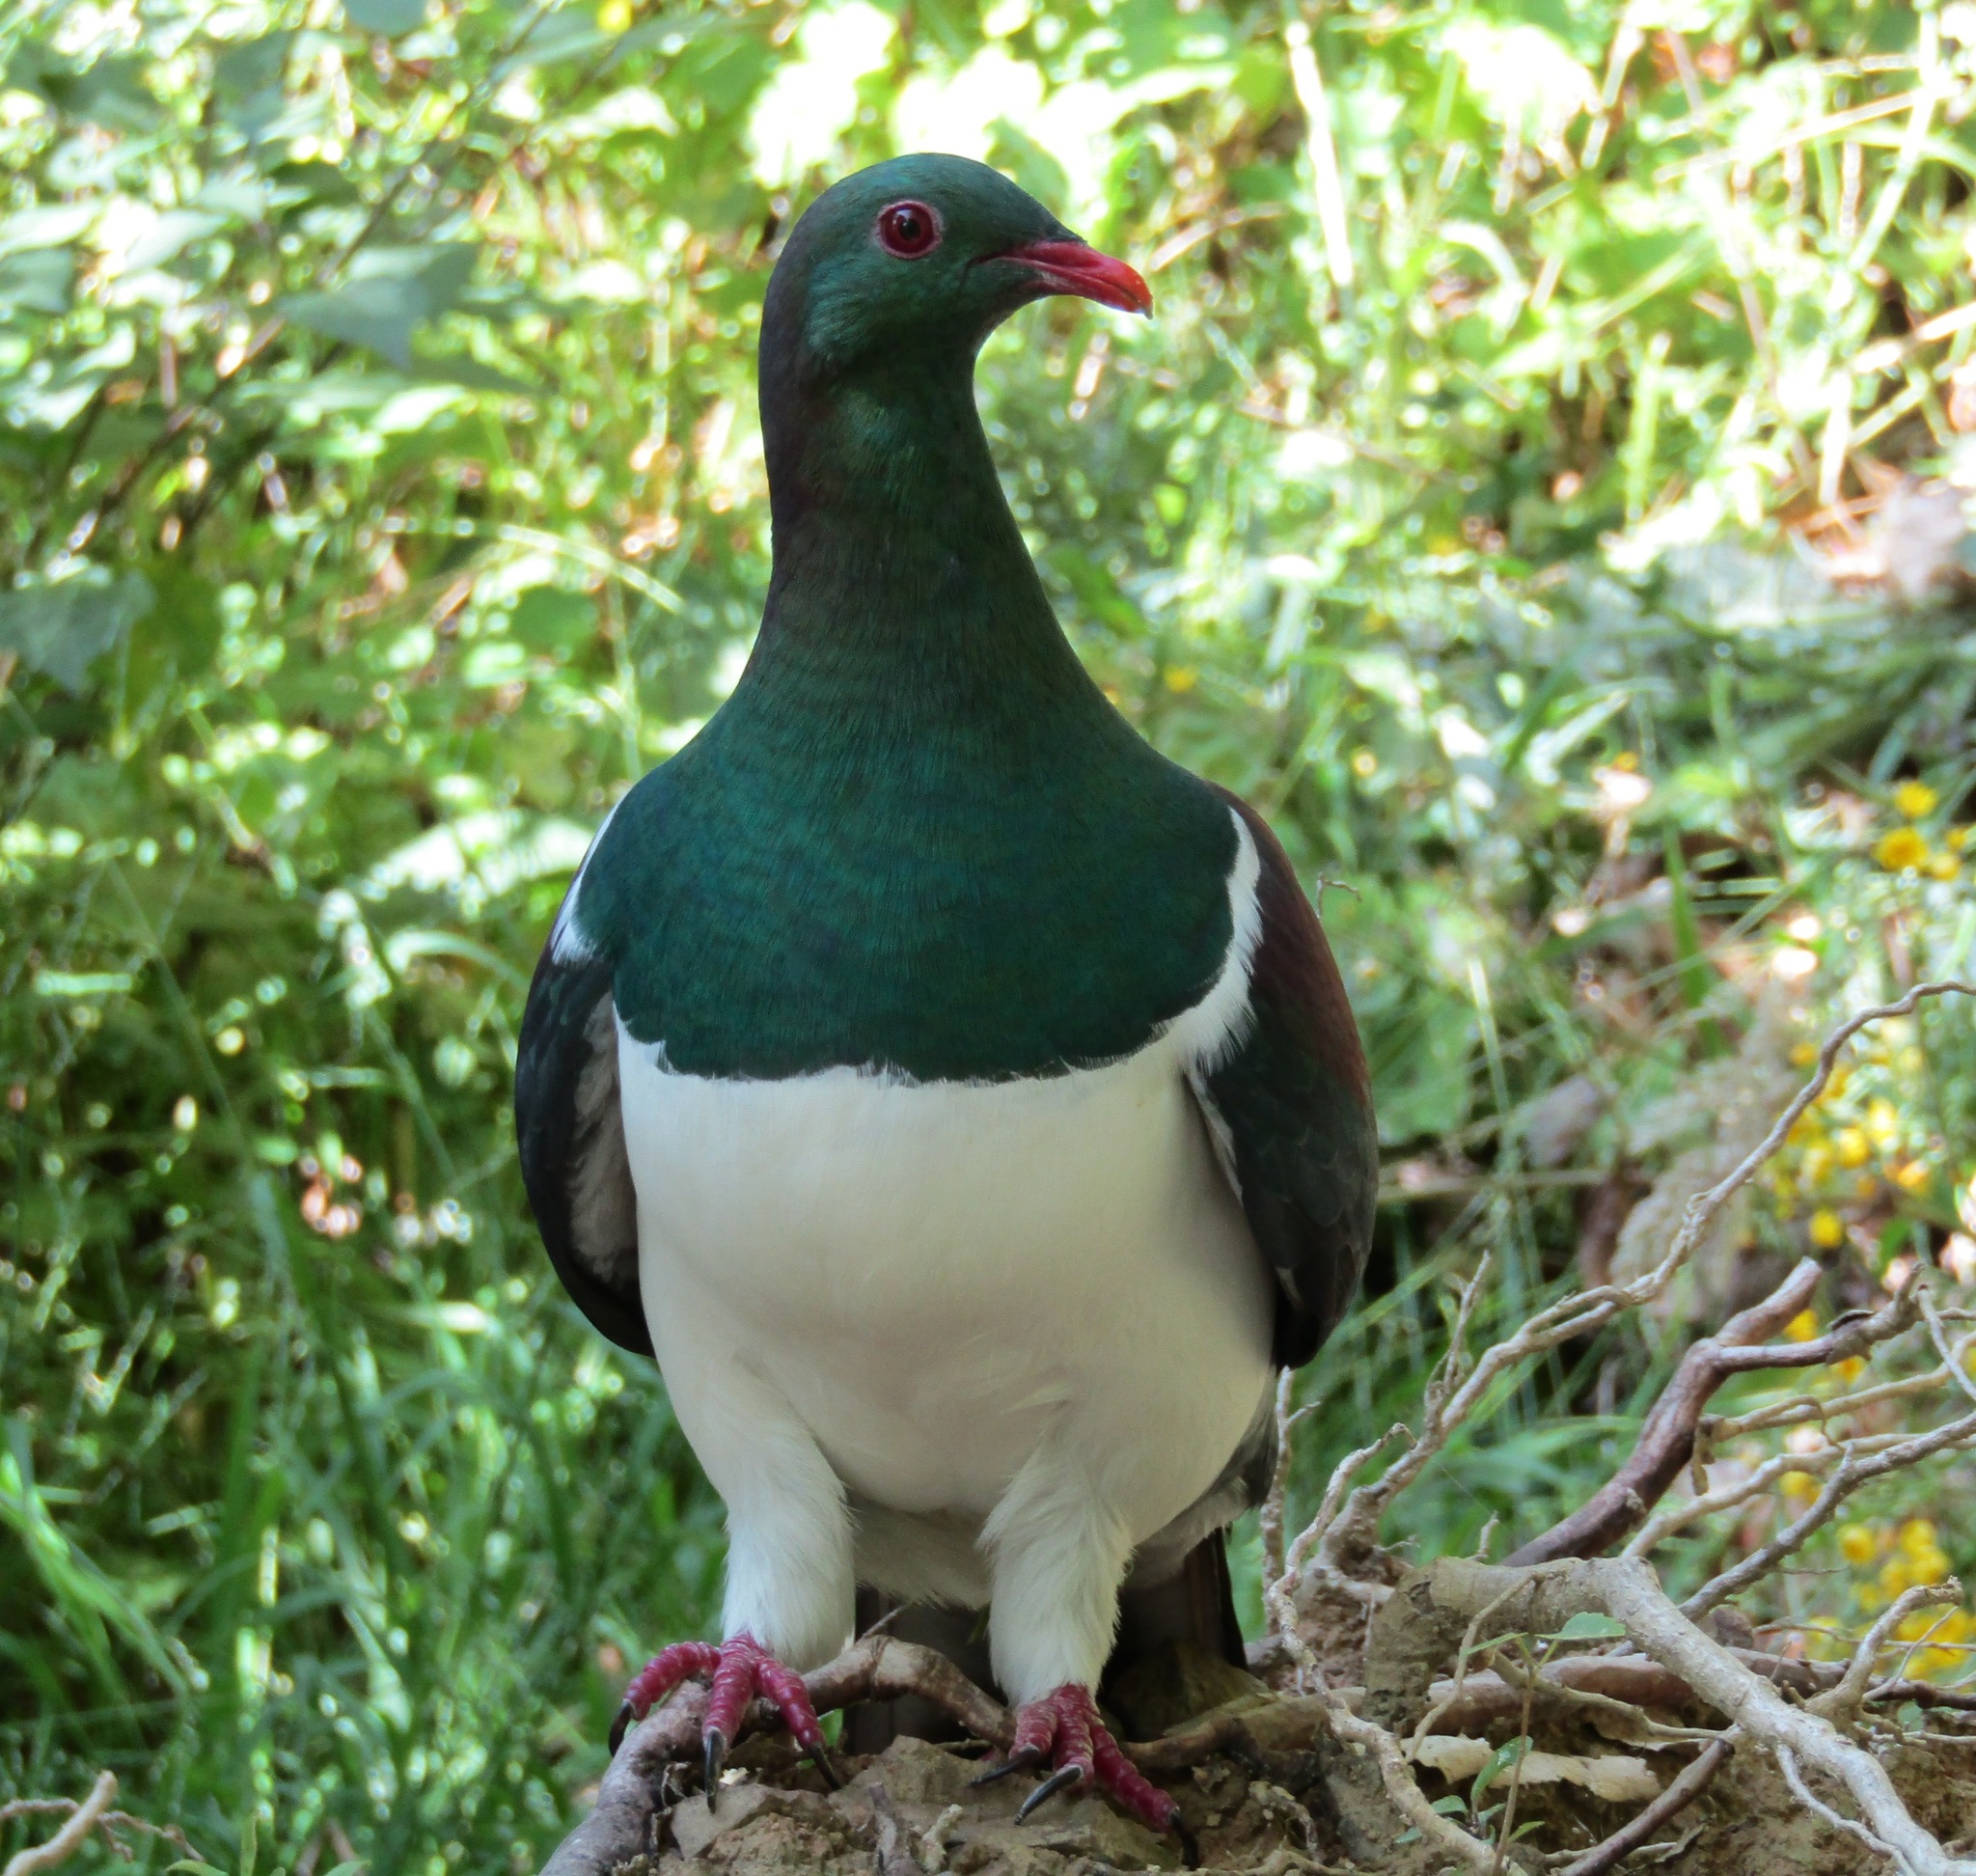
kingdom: Animalia
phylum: Chordata
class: Aves
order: Columbiformes
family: Columbidae
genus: Hemiphaga
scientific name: Hemiphaga novaeseelandiae
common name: New zealand pigeon
